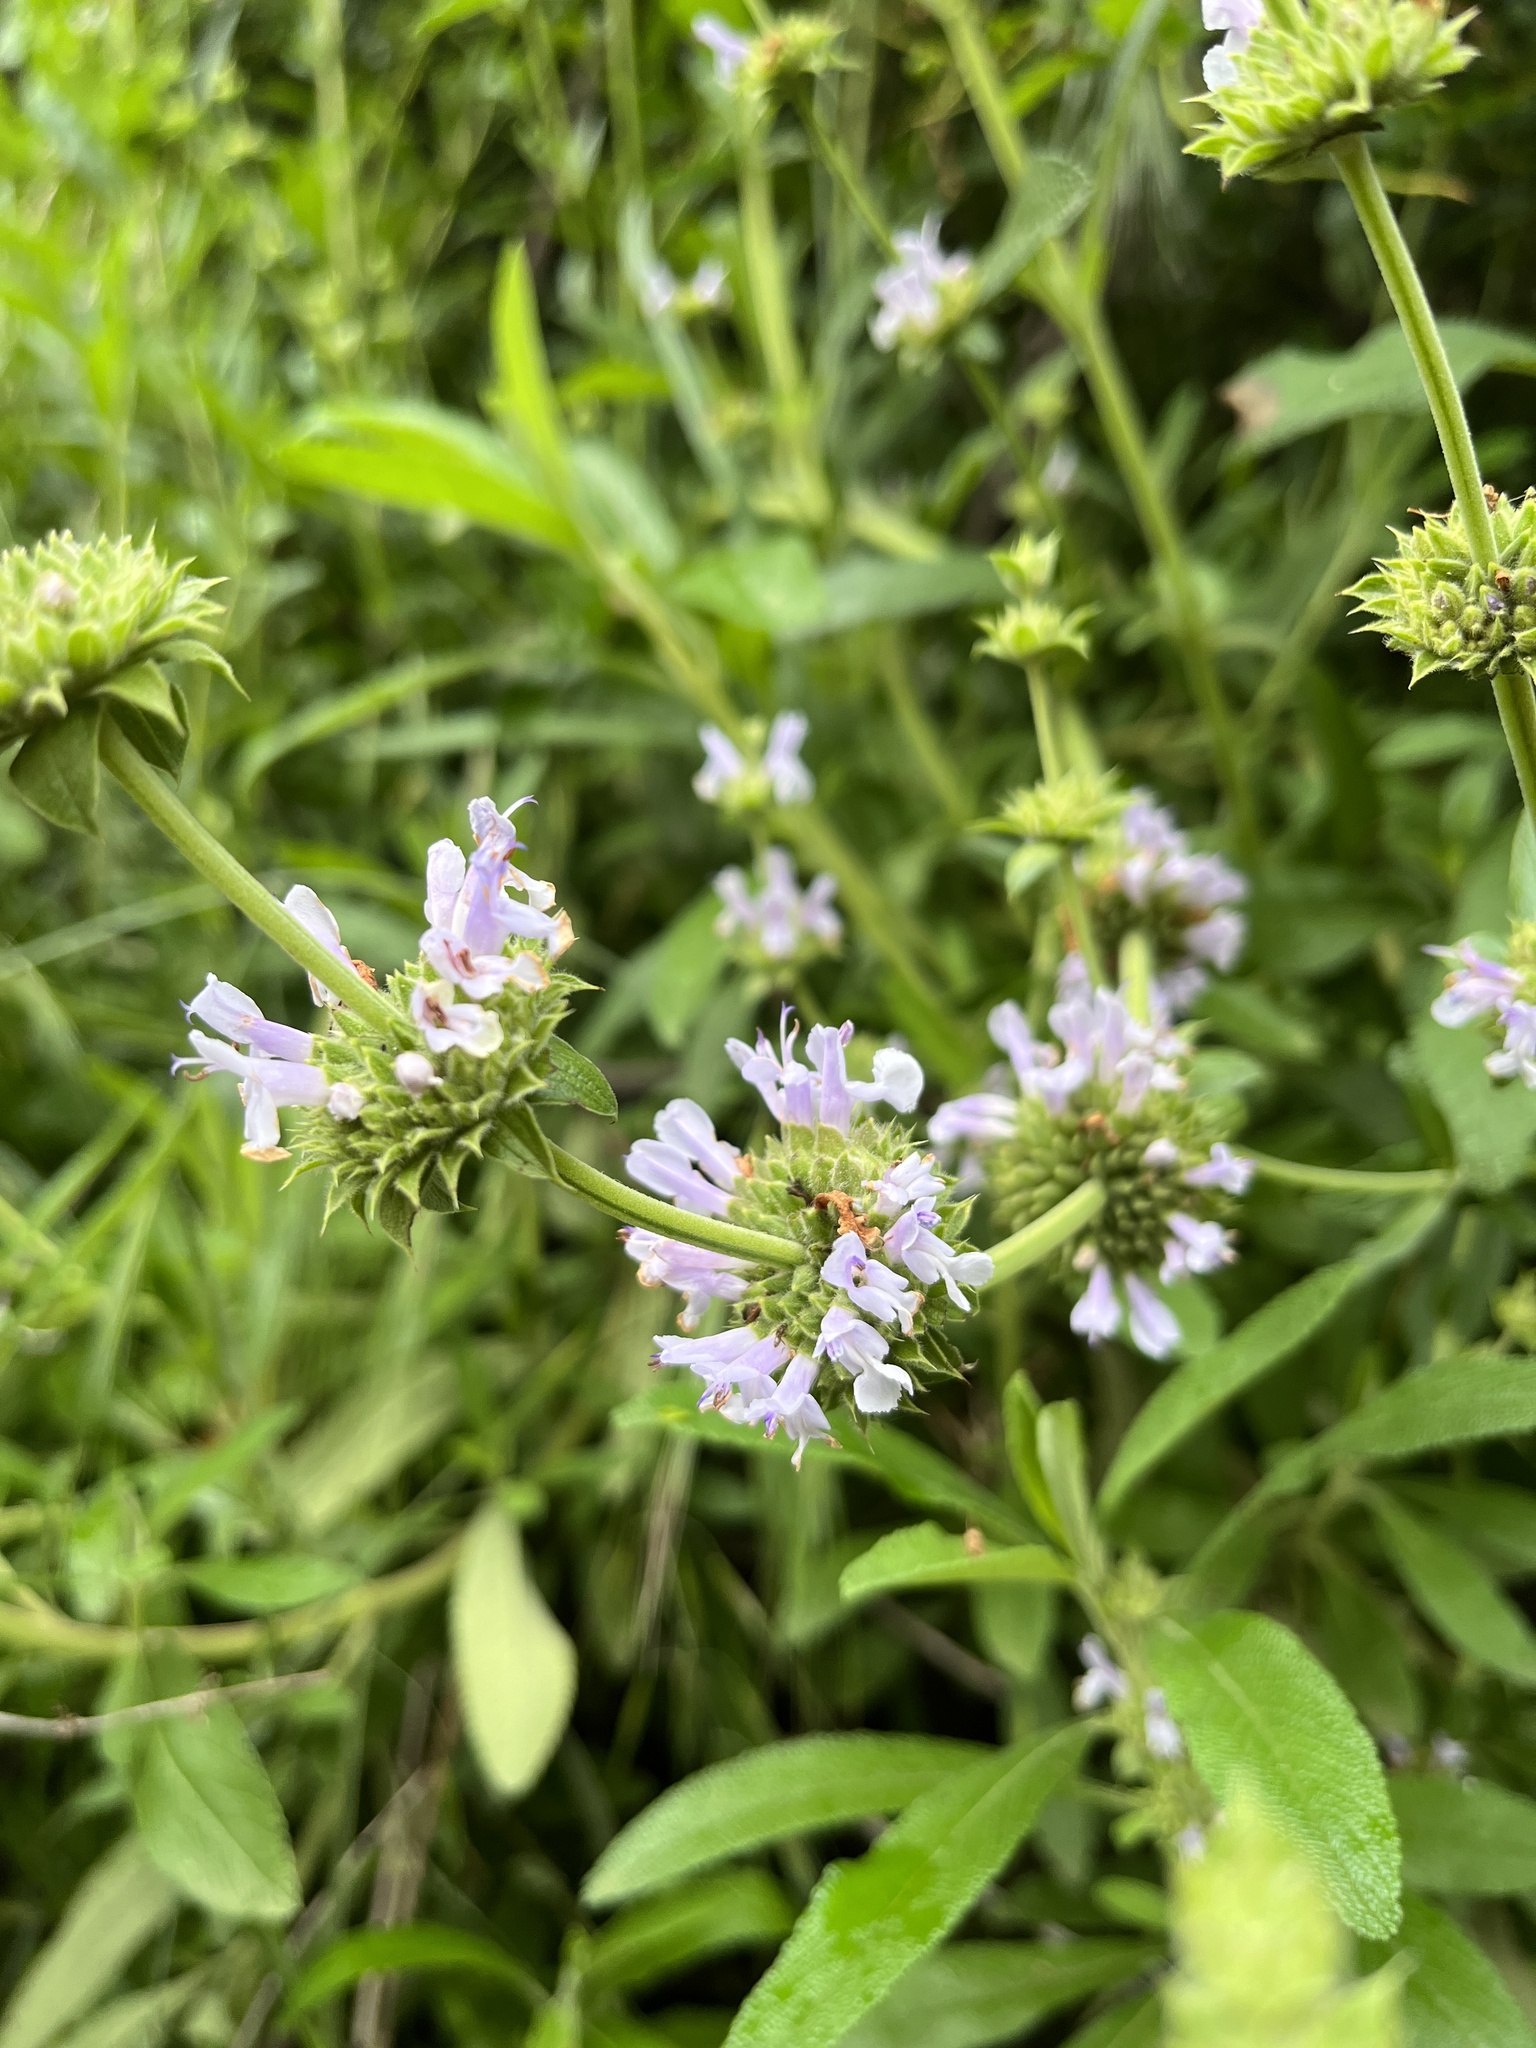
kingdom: Plantae
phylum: Tracheophyta
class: Magnoliopsida
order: Lamiales
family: Lamiaceae
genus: Salvia
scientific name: Salvia mellifera
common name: Black sage
